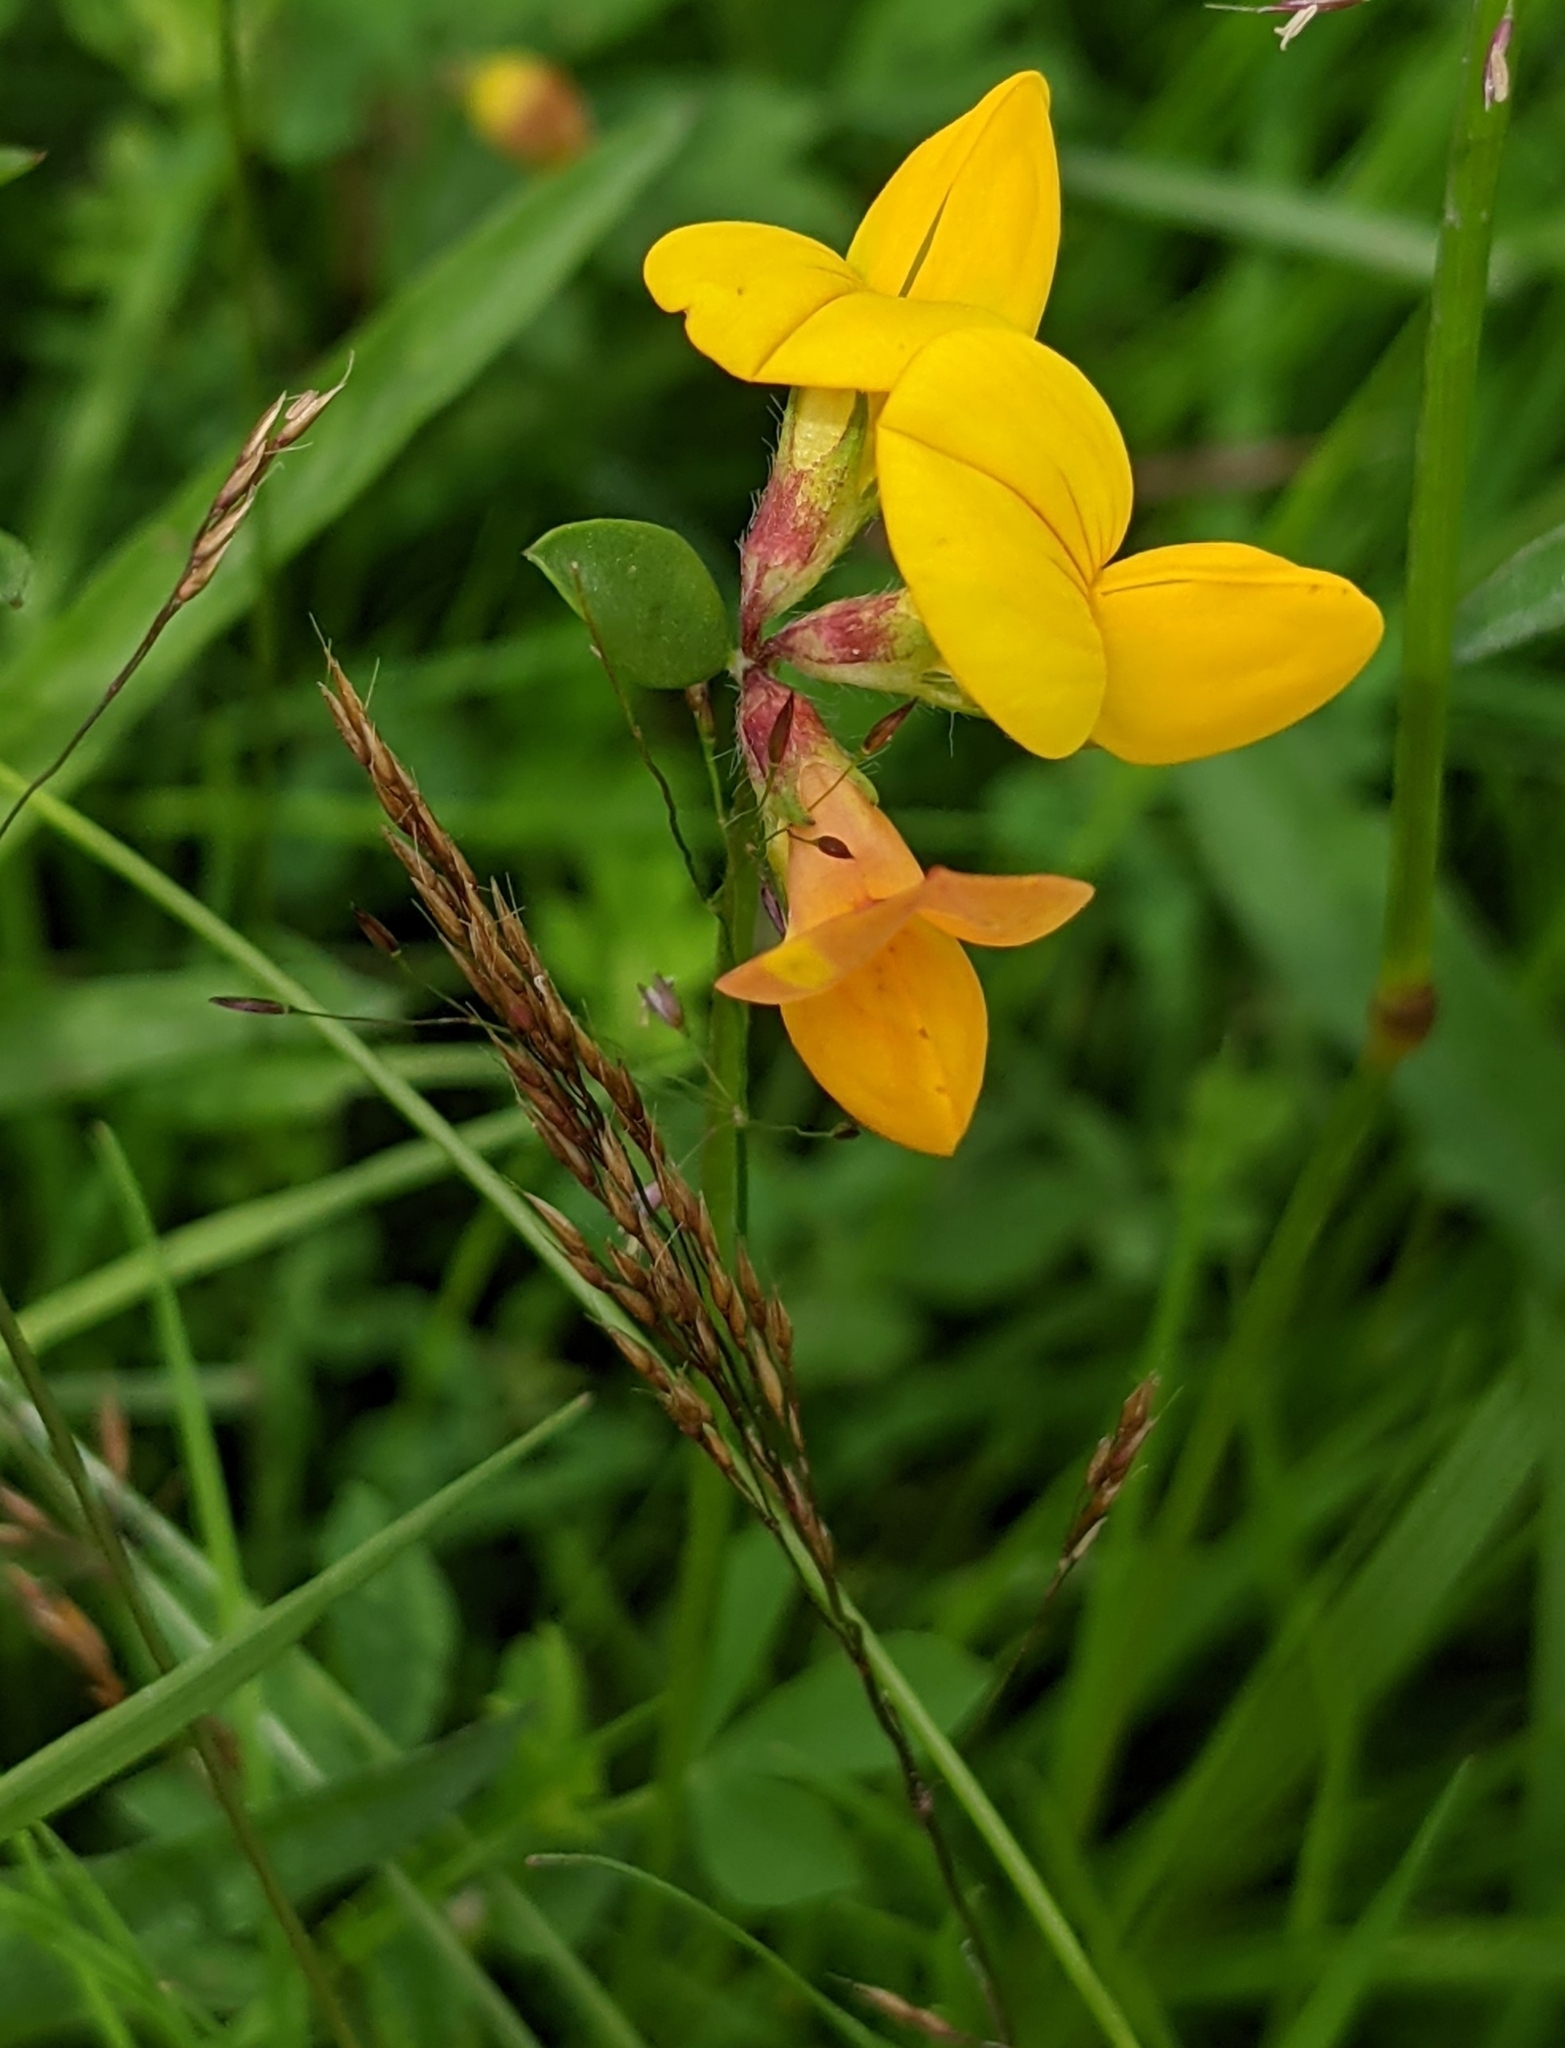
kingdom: Plantae
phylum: Tracheophyta
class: Magnoliopsida
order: Fabales
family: Fabaceae
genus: Lotus
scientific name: Lotus corniculatus
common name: Common bird's-foot-trefoil
